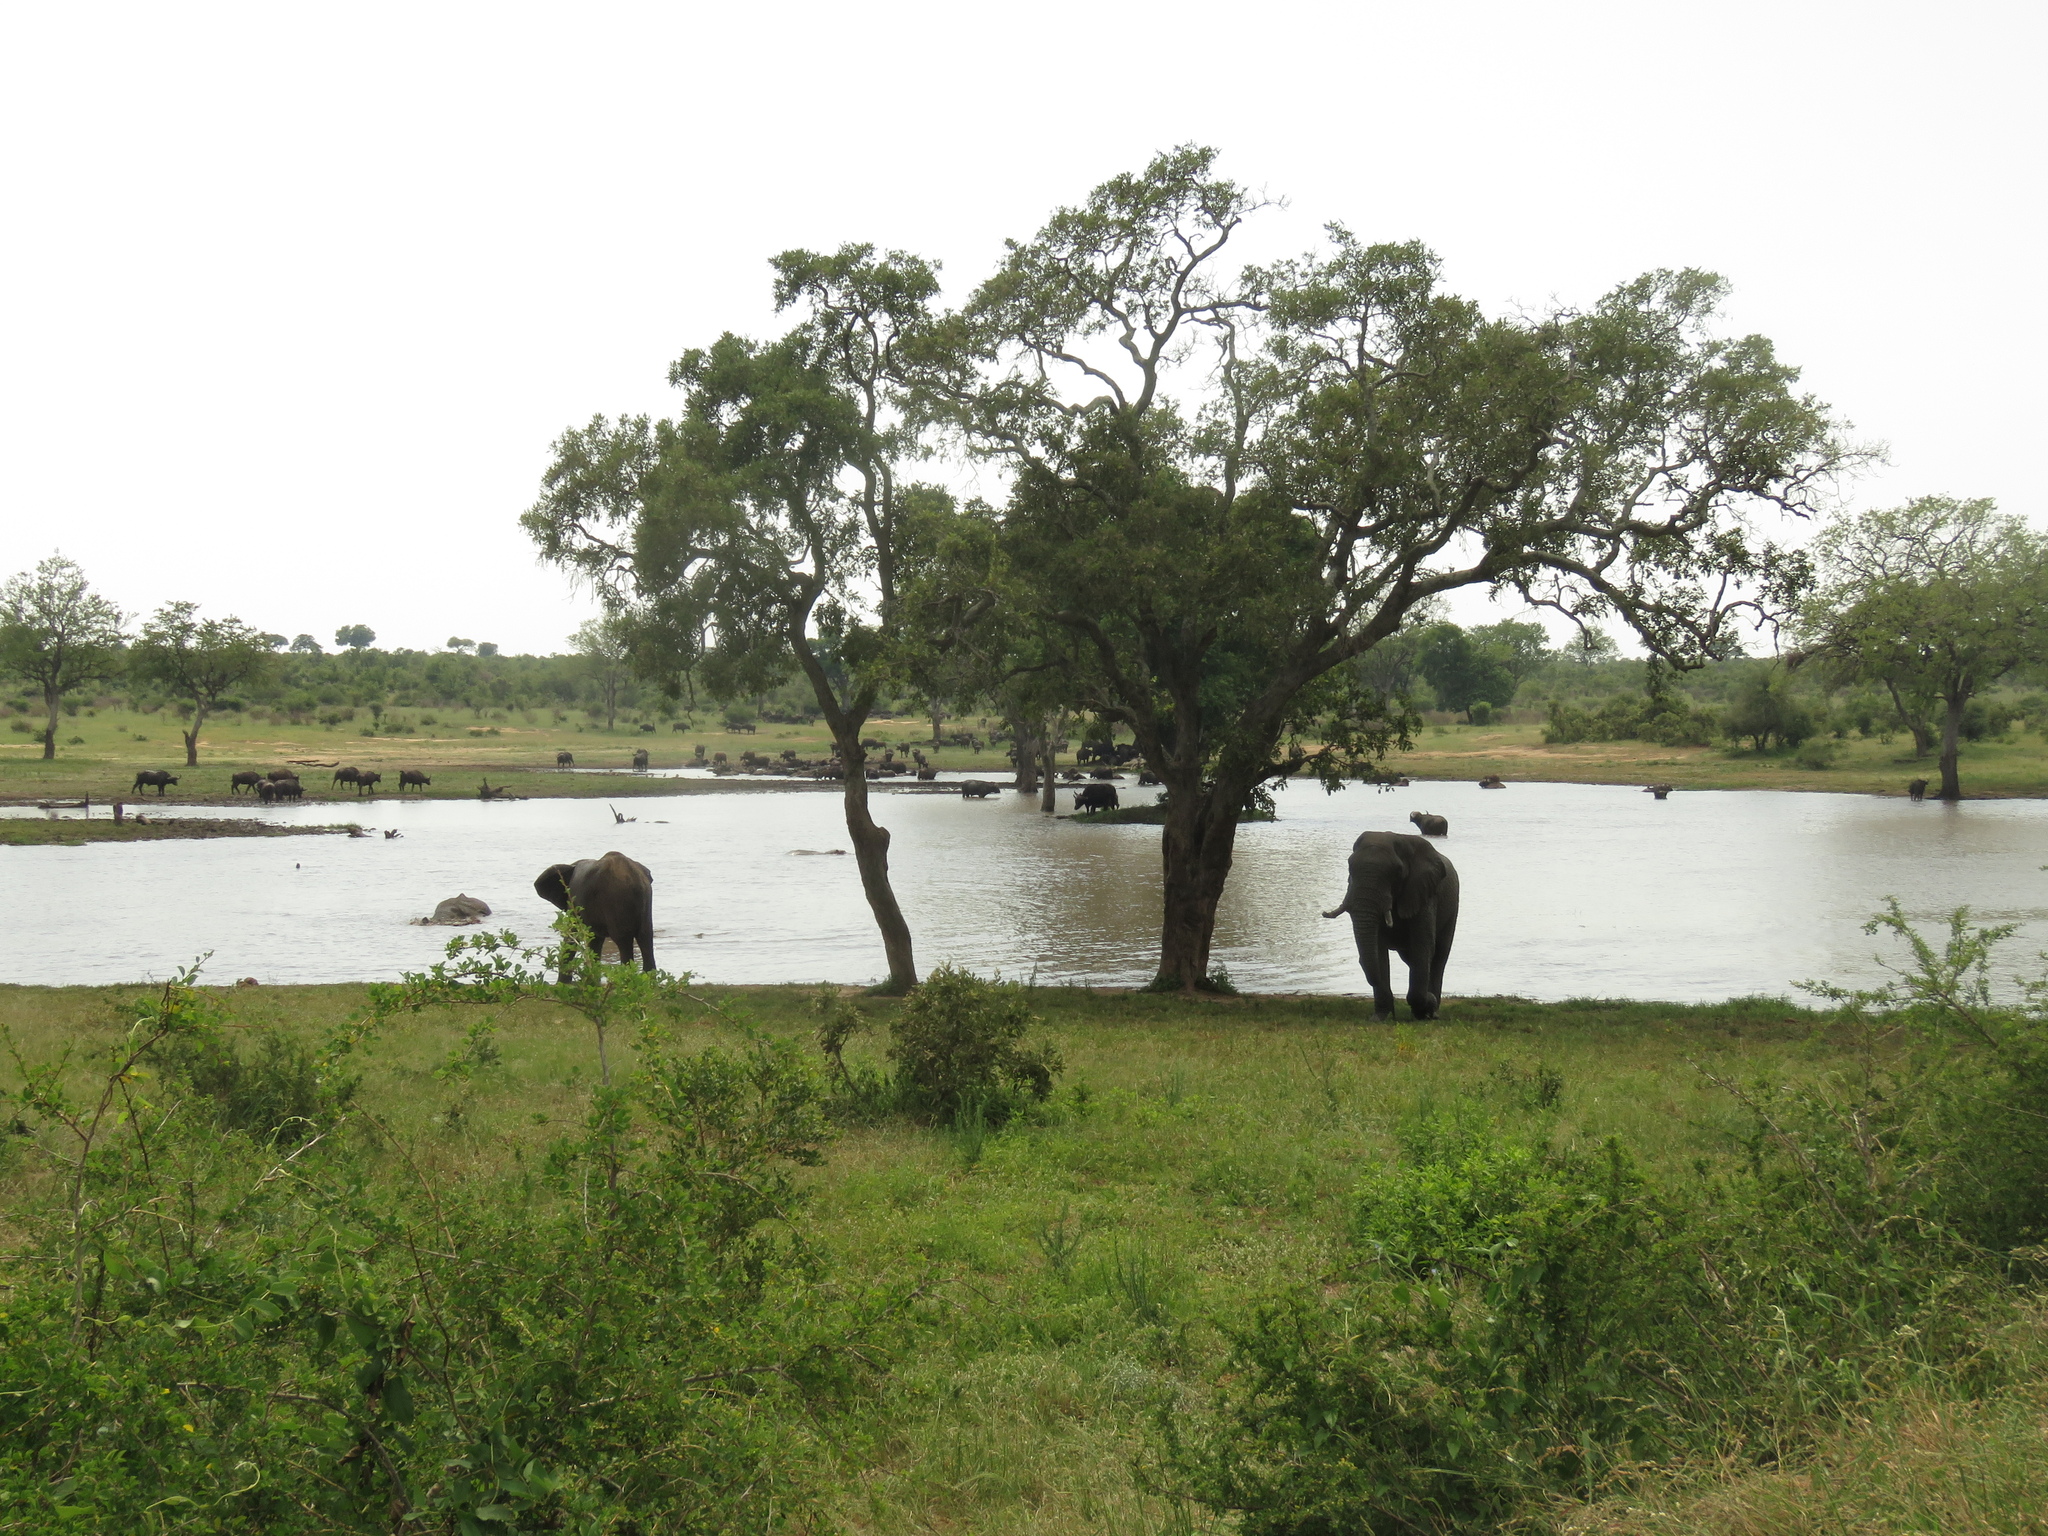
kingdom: Animalia
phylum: Chordata
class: Mammalia
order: Proboscidea
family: Elephantidae
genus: Loxodonta
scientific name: Loxodonta africana
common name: African elephant
